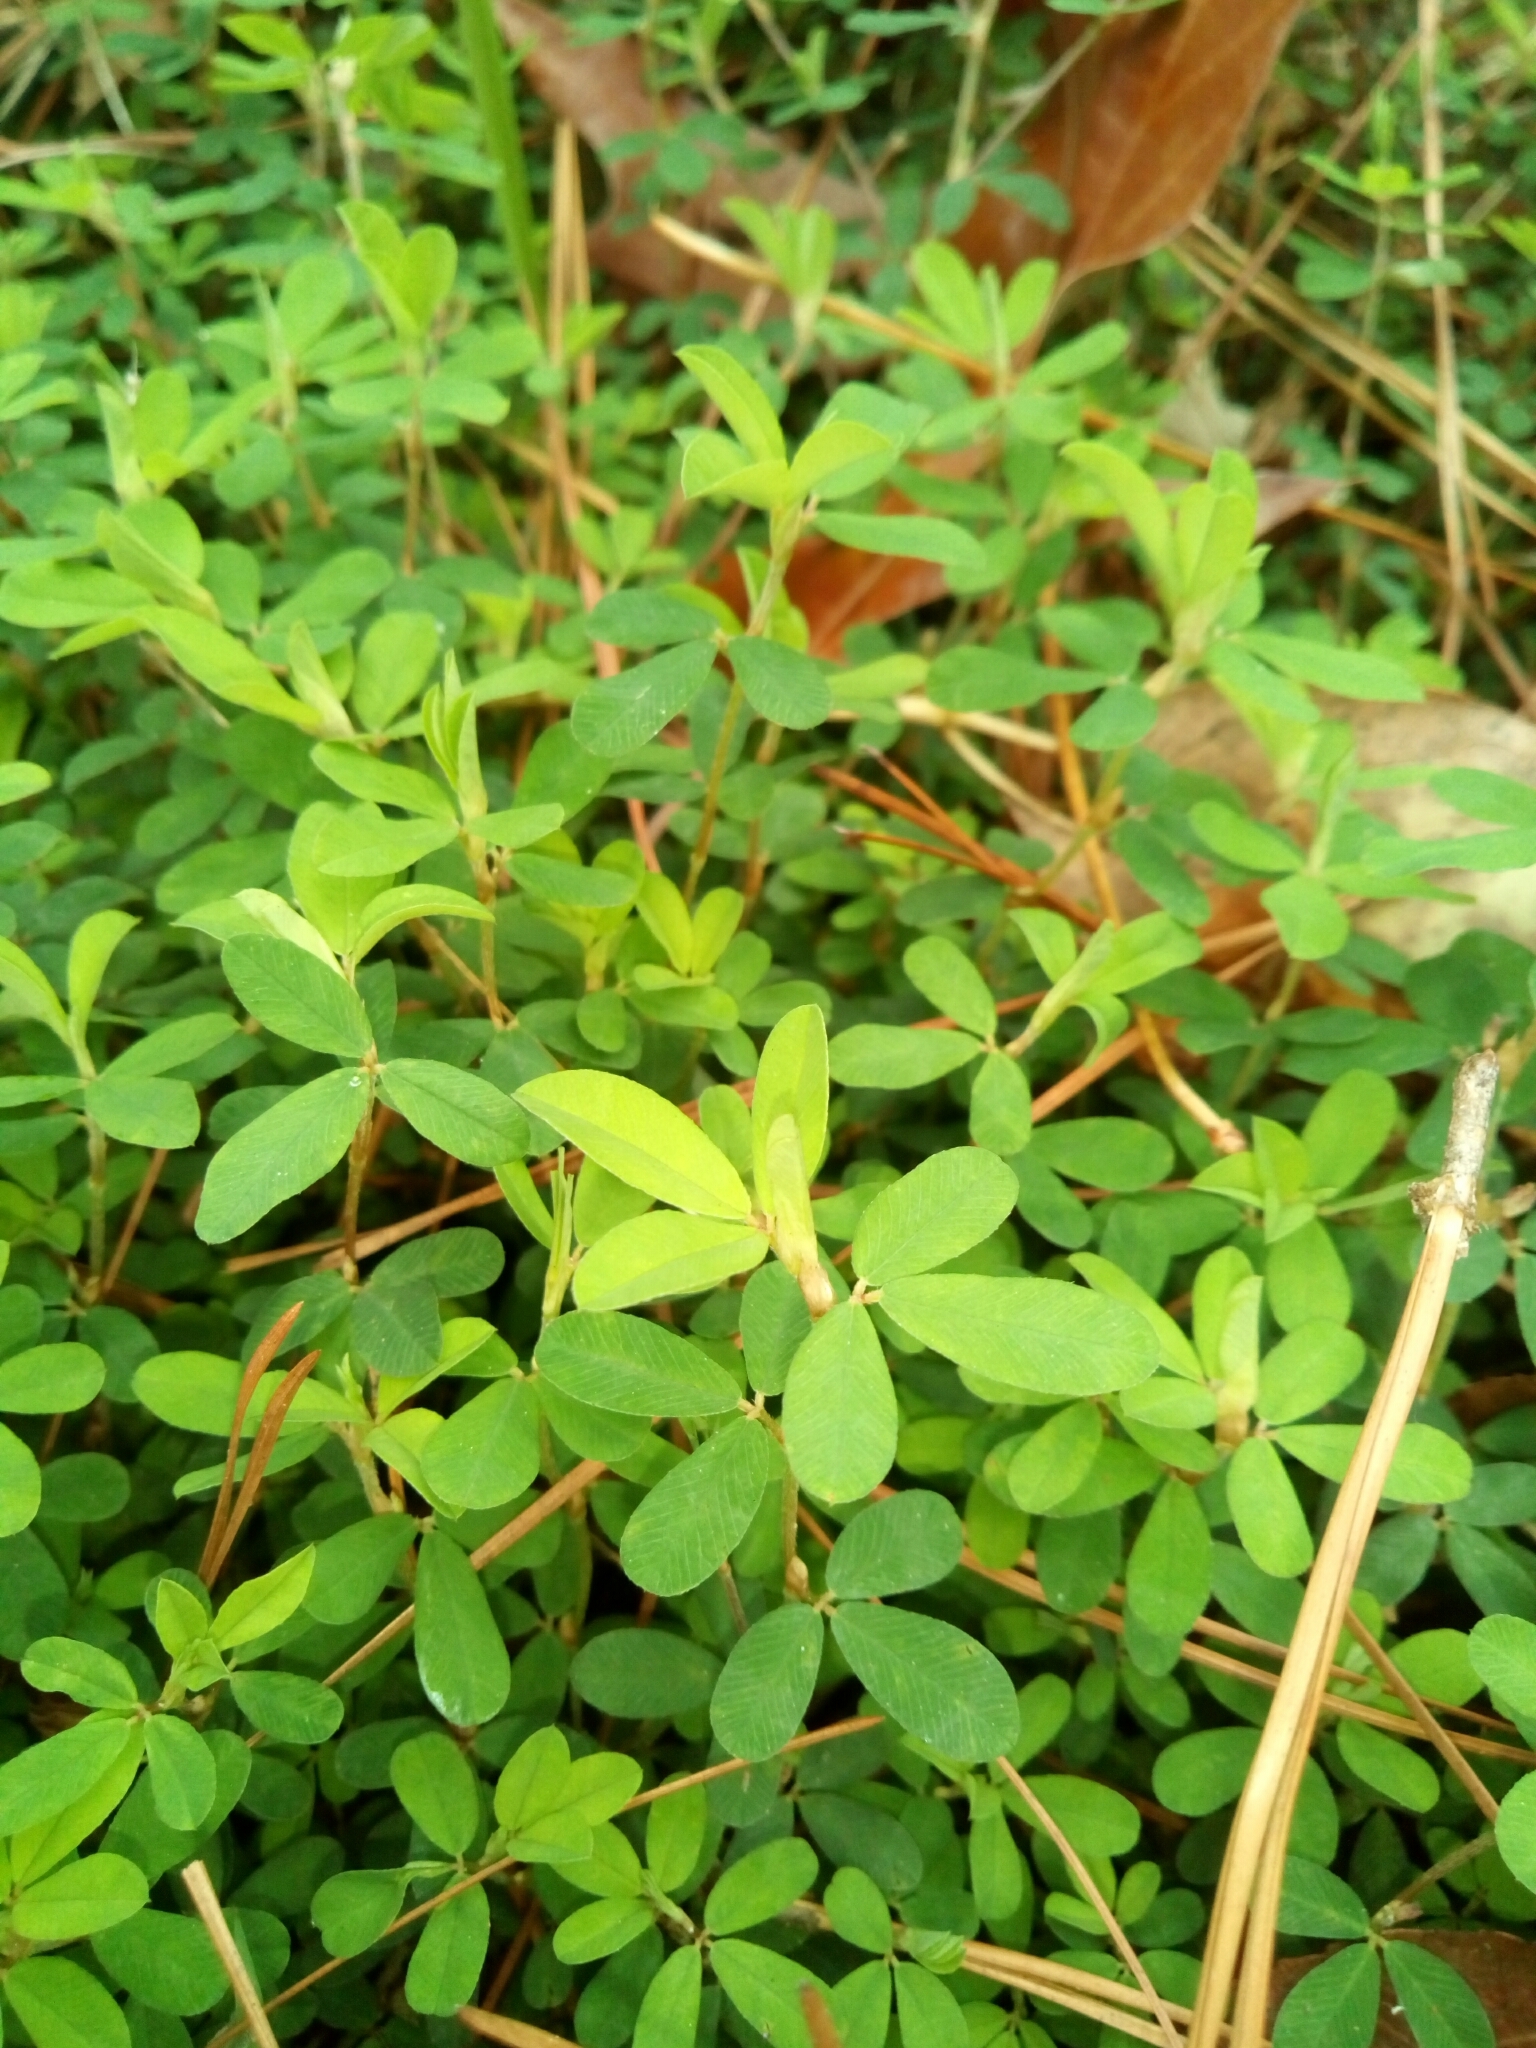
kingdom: Plantae
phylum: Tracheophyta
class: Magnoliopsida
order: Fabales
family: Fabaceae
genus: Kummerowia
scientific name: Kummerowia striata
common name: Japanese clover
